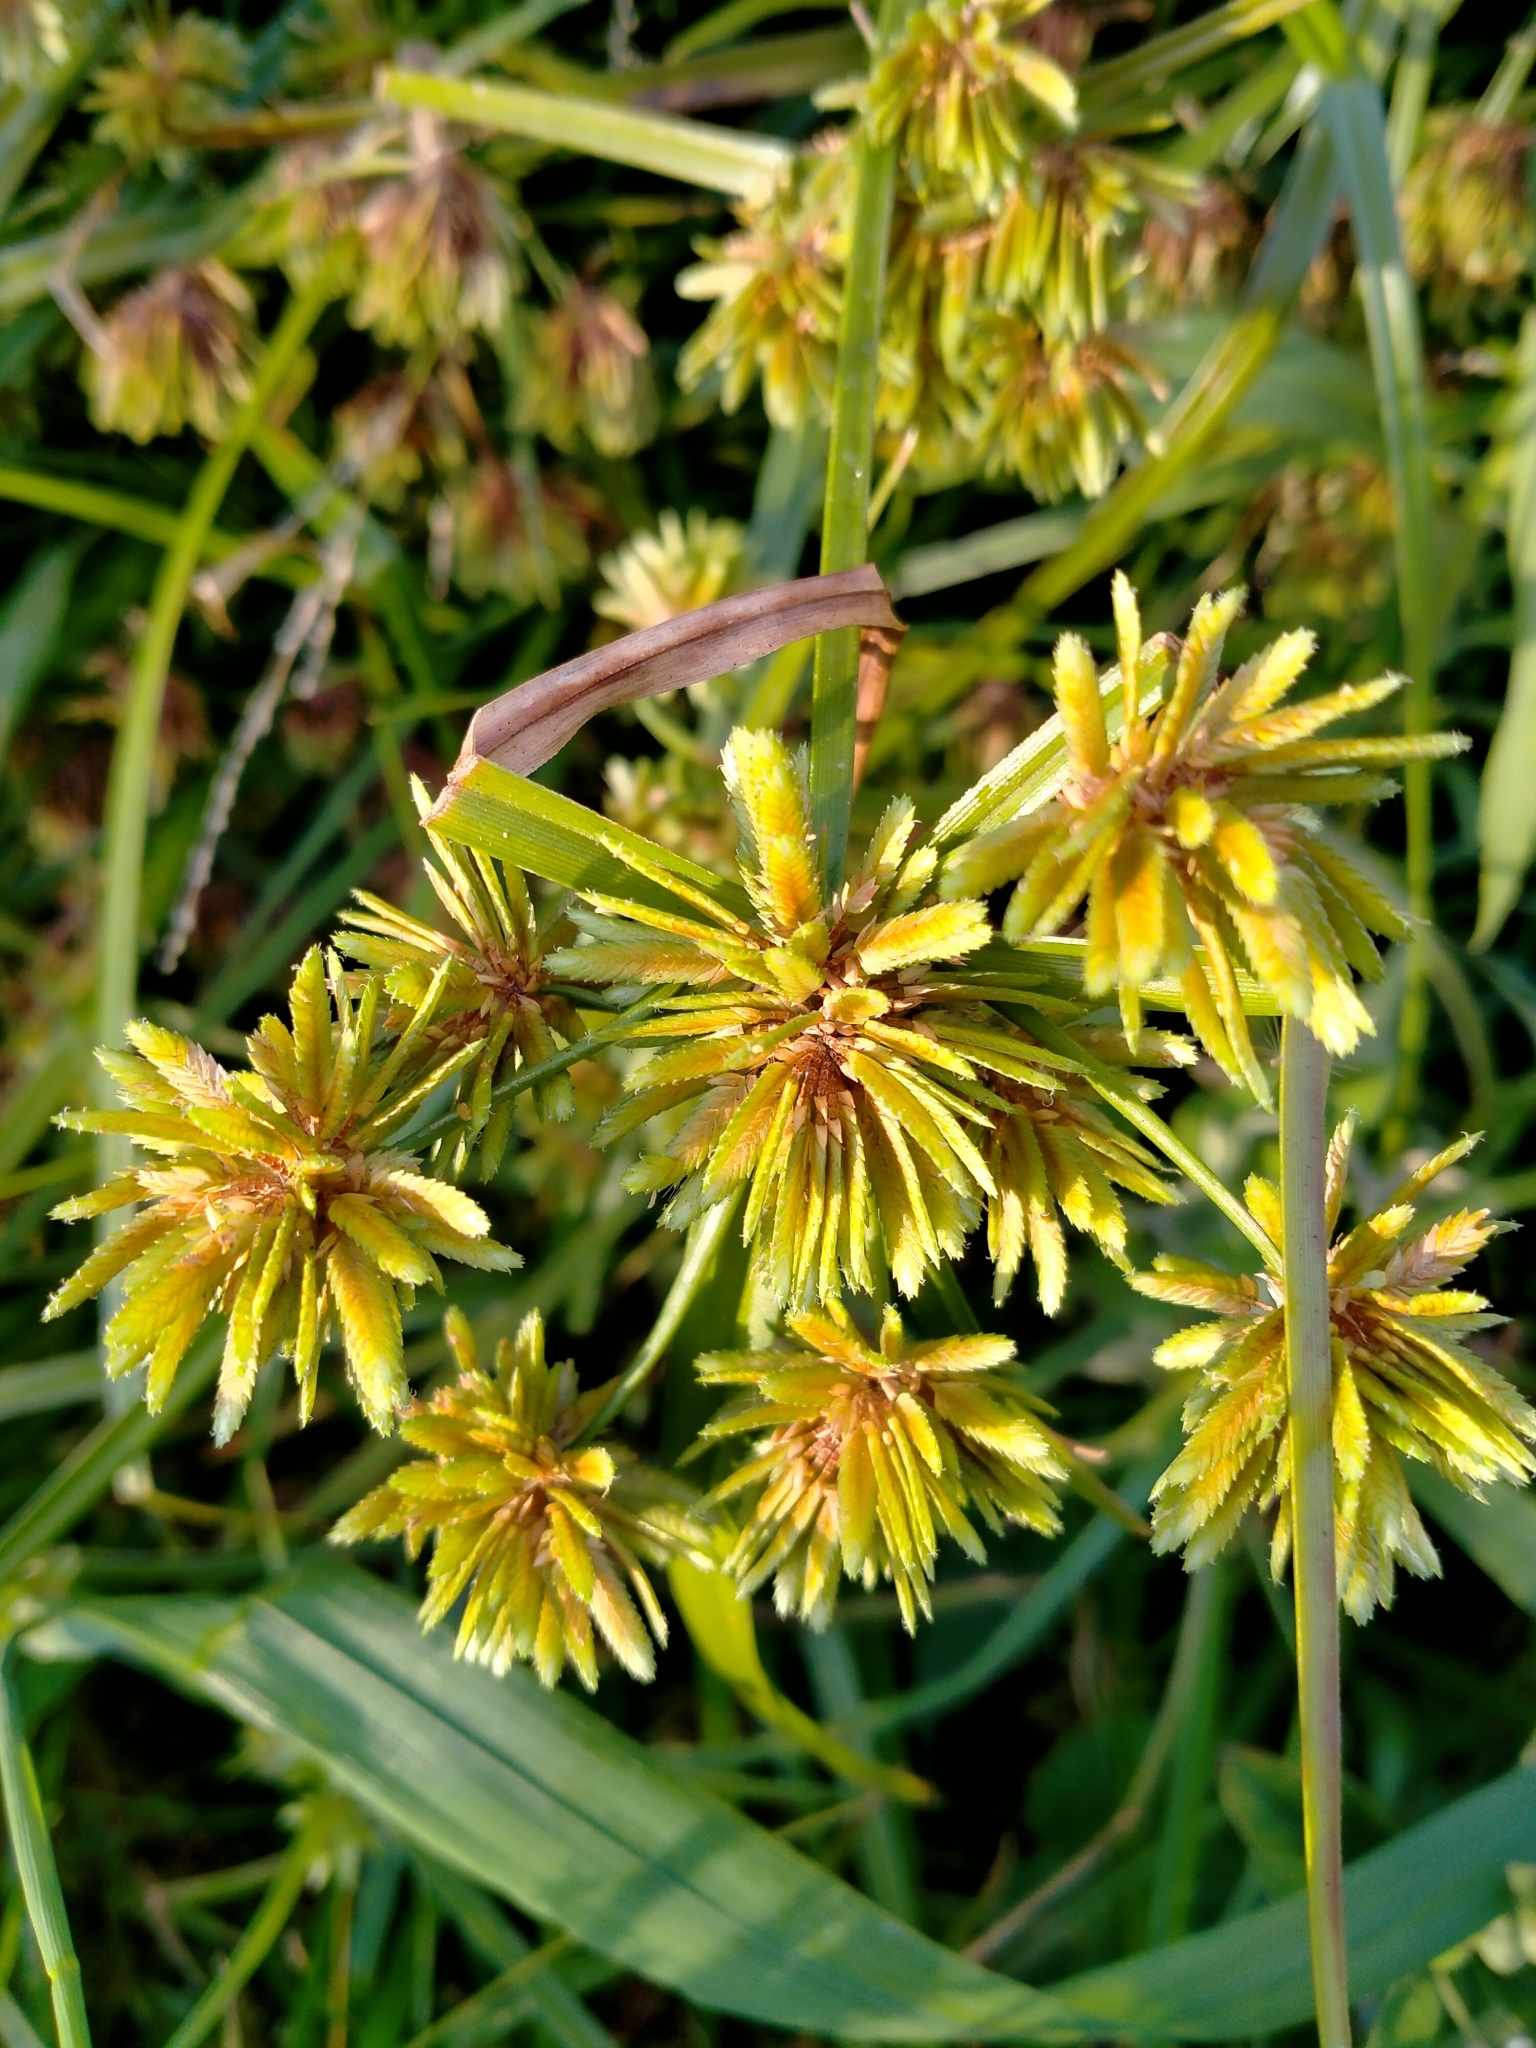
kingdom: Plantae
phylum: Tracheophyta
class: Liliopsida
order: Poales
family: Cyperaceae
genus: Cyperus
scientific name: Cyperus eragrostis
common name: Tall flatsedge
